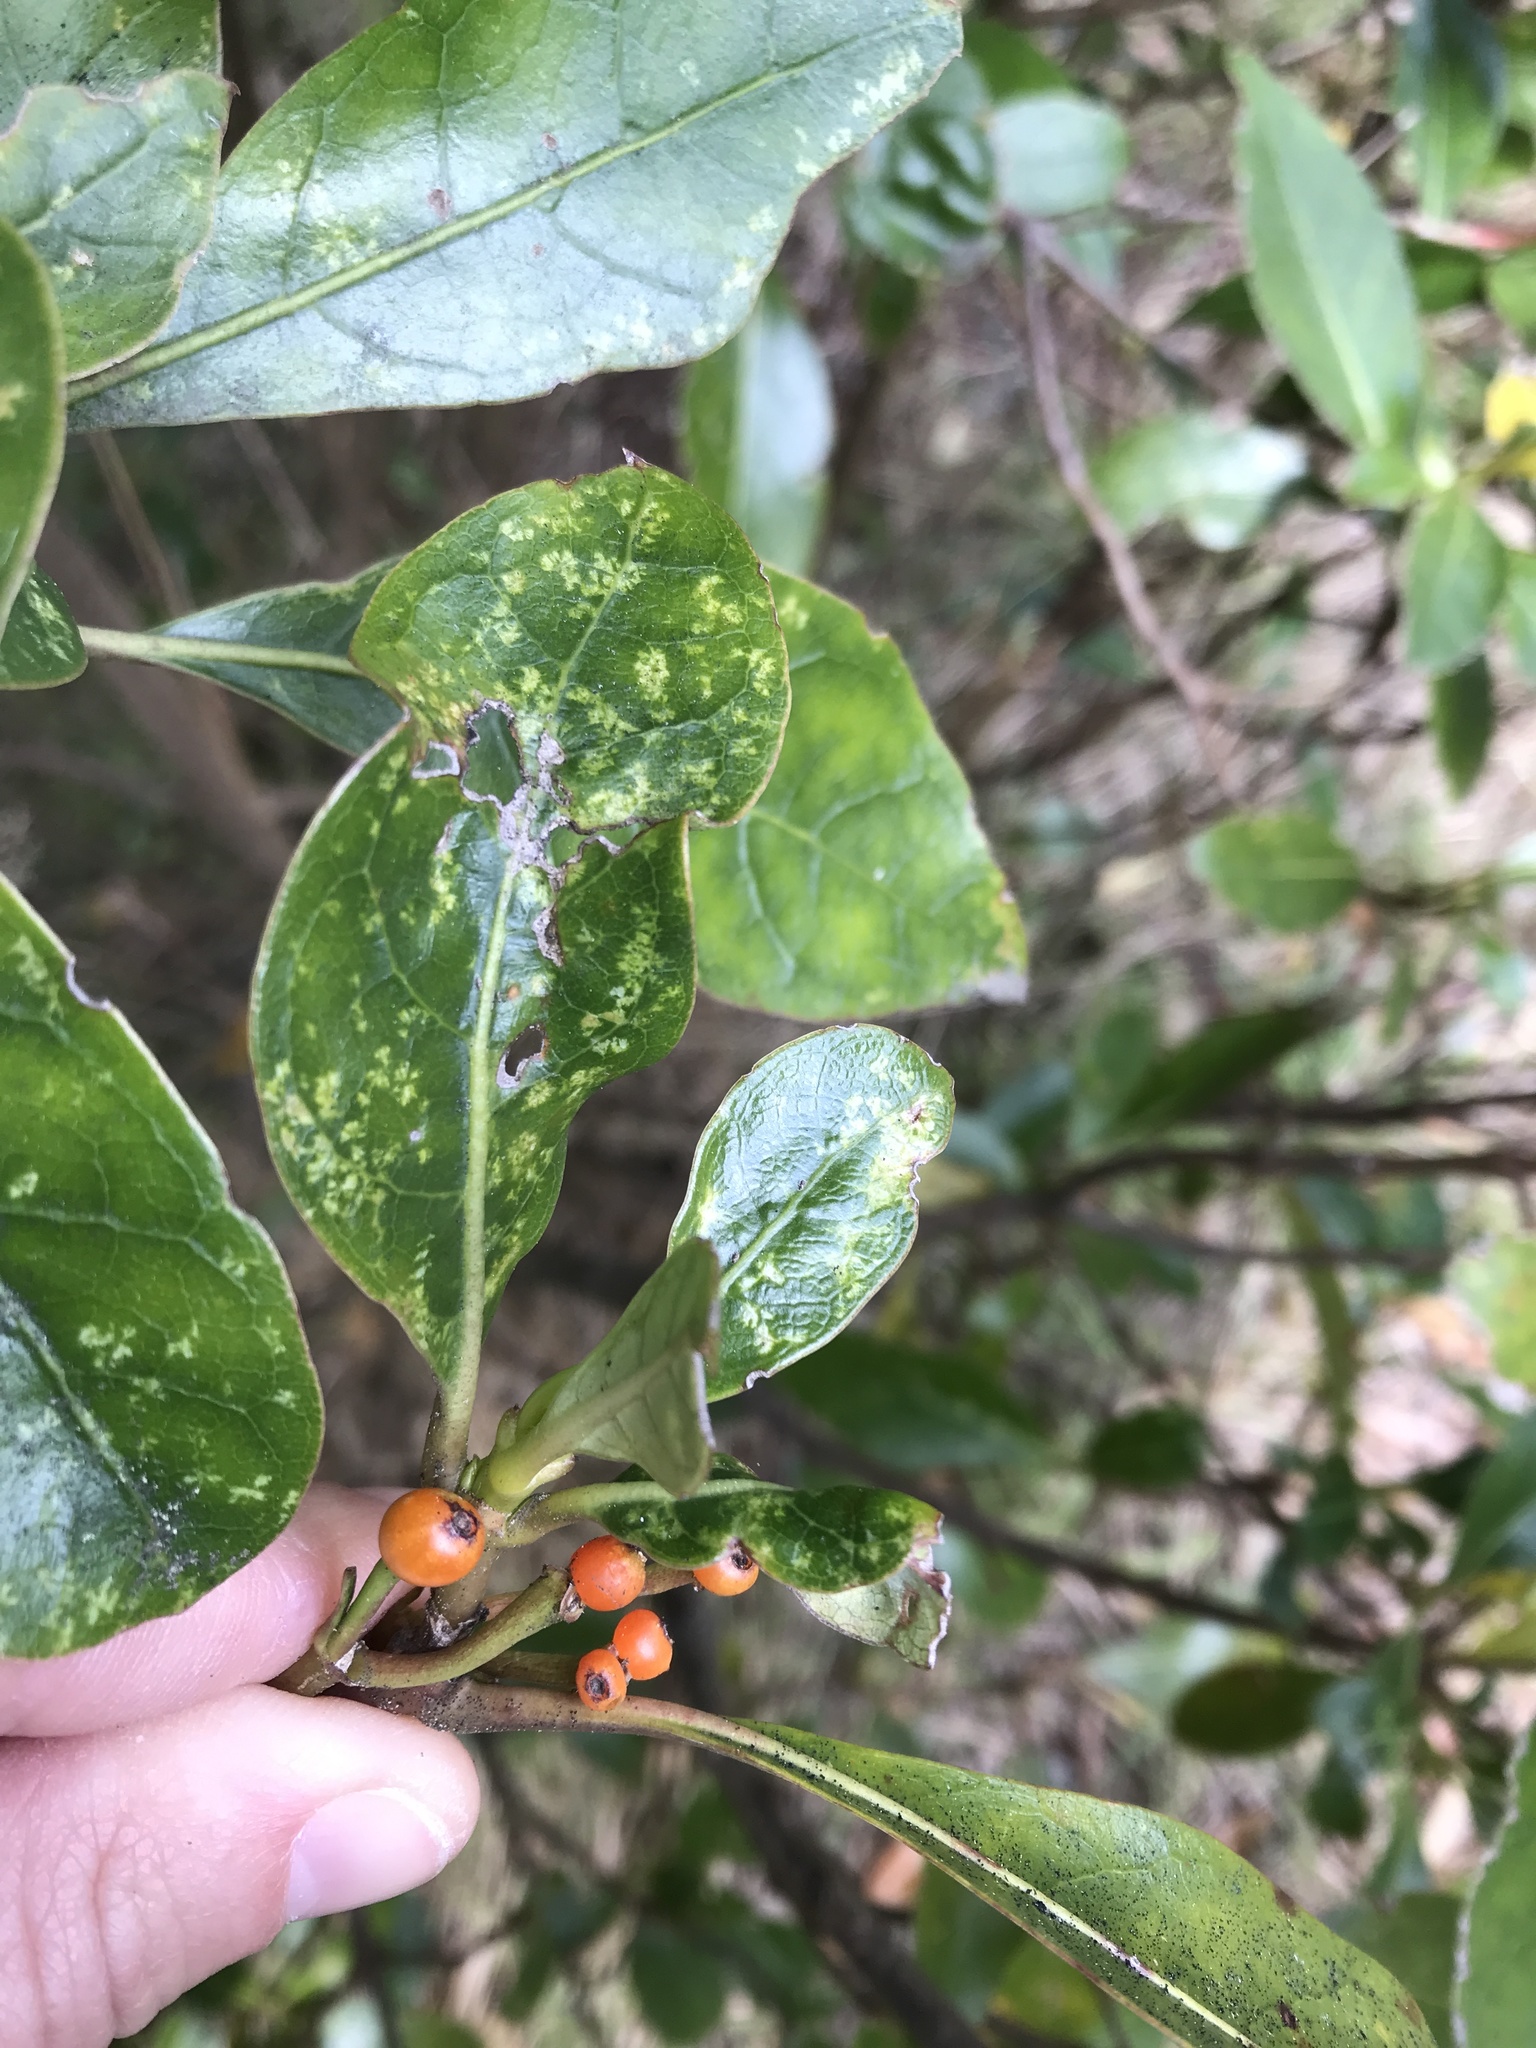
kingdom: Plantae
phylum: Tracheophyta
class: Magnoliopsida
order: Gentianales
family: Rubiaceae
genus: Coprosma
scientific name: Coprosma lucida
